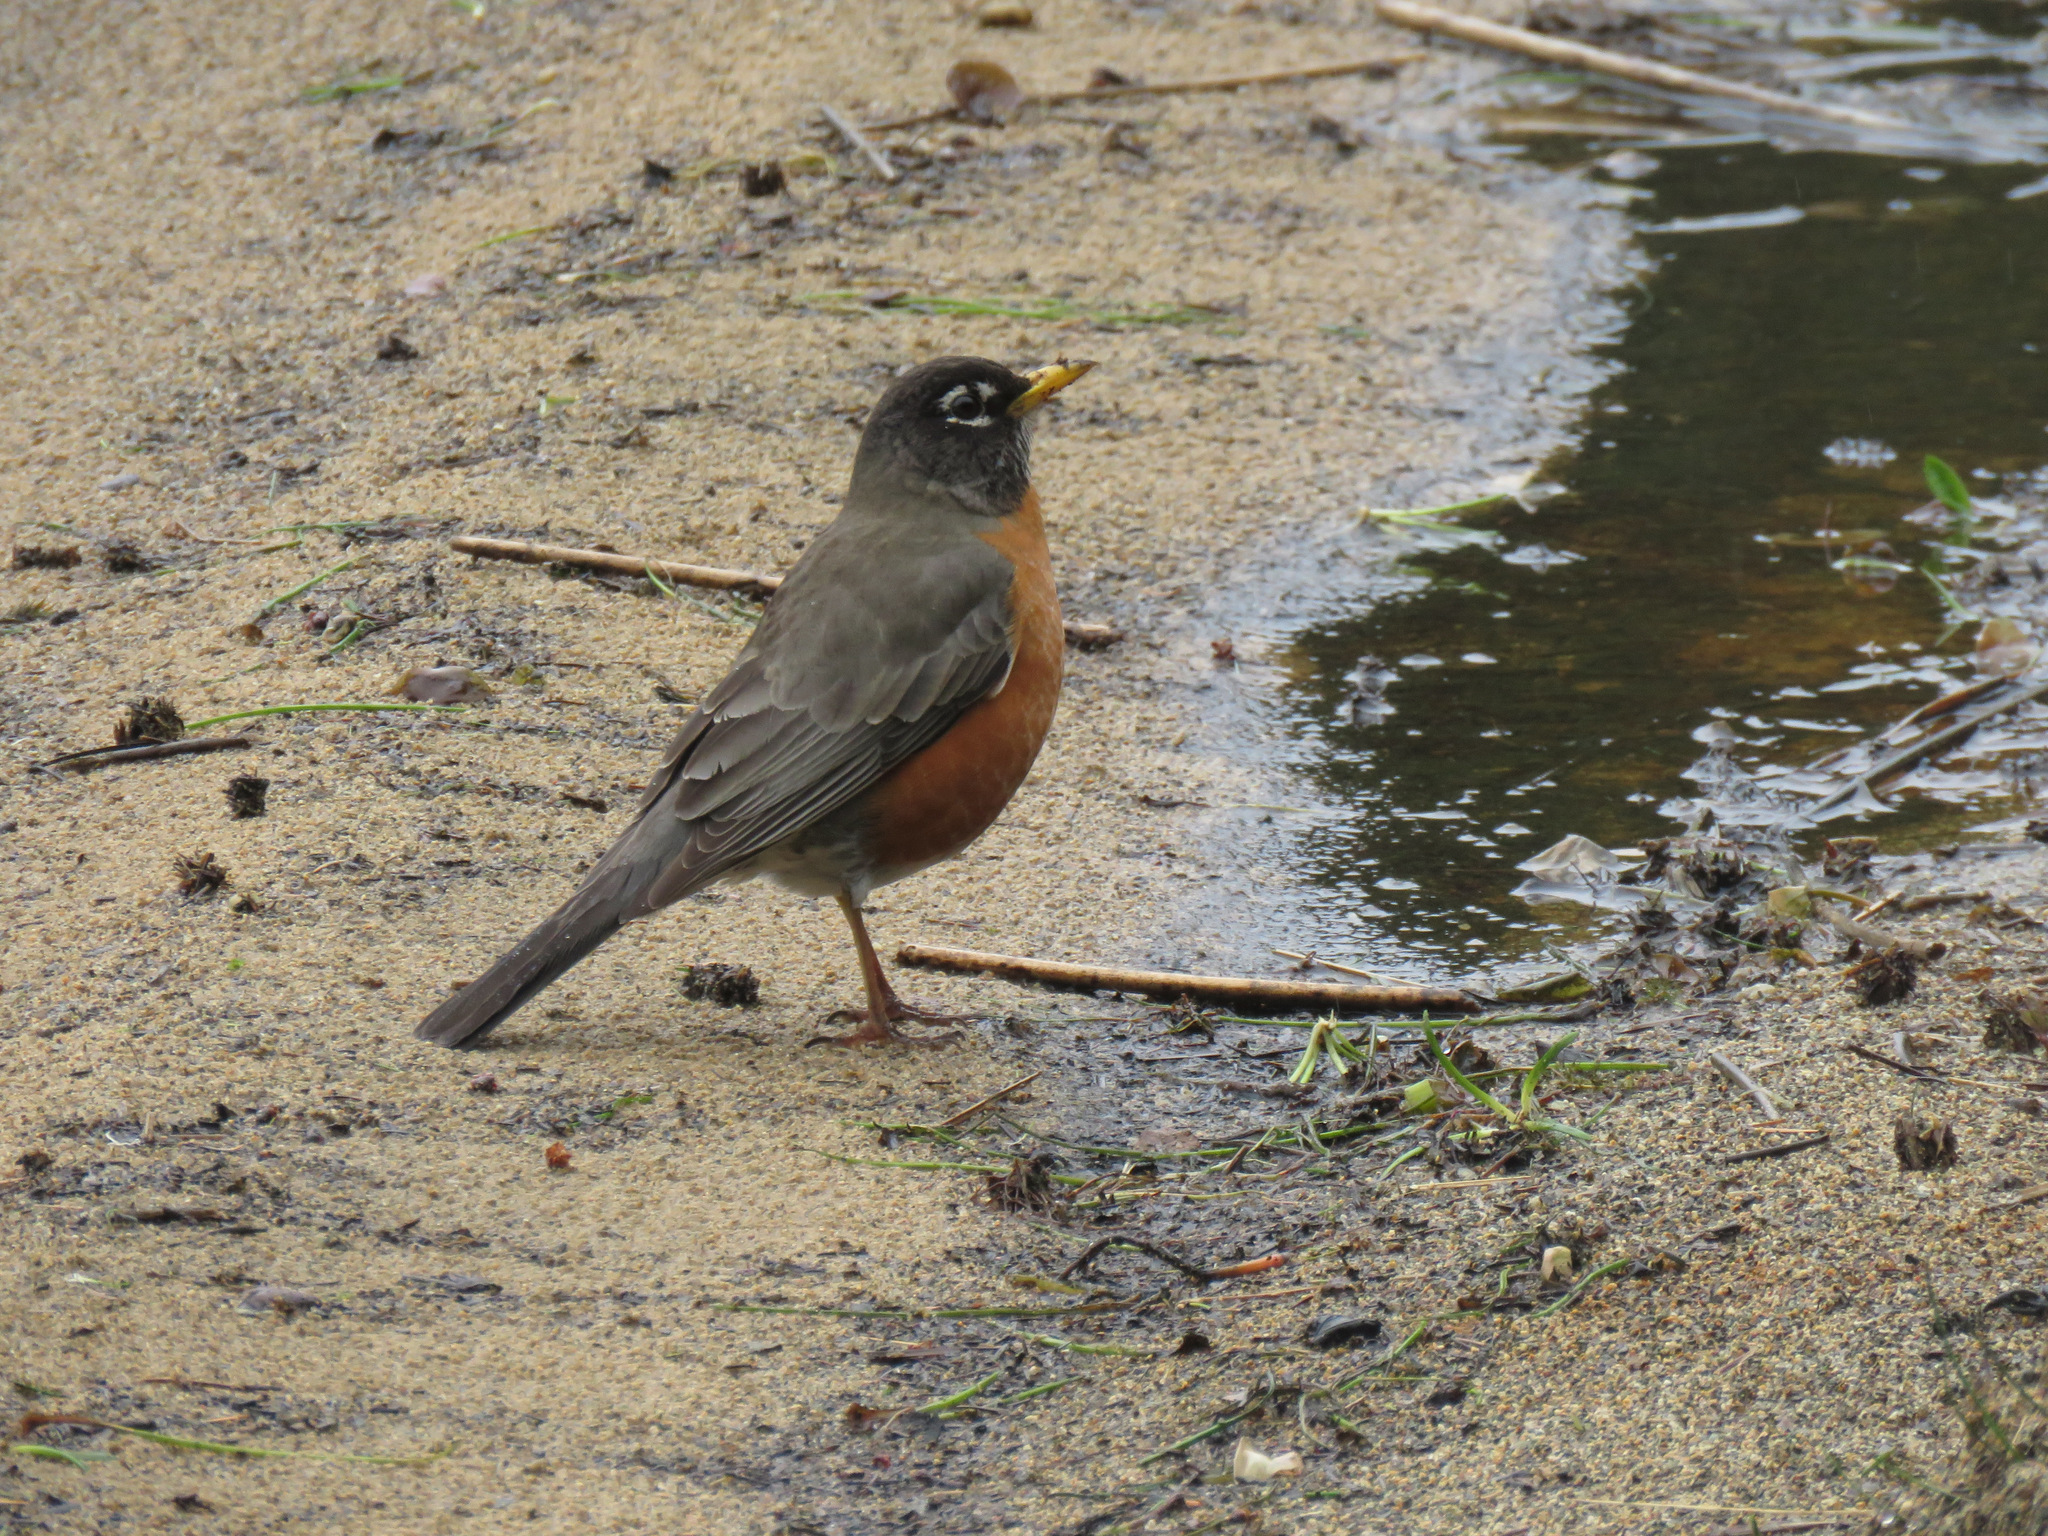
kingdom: Animalia
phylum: Chordata
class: Aves
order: Passeriformes
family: Turdidae
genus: Turdus
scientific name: Turdus migratorius
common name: American robin
